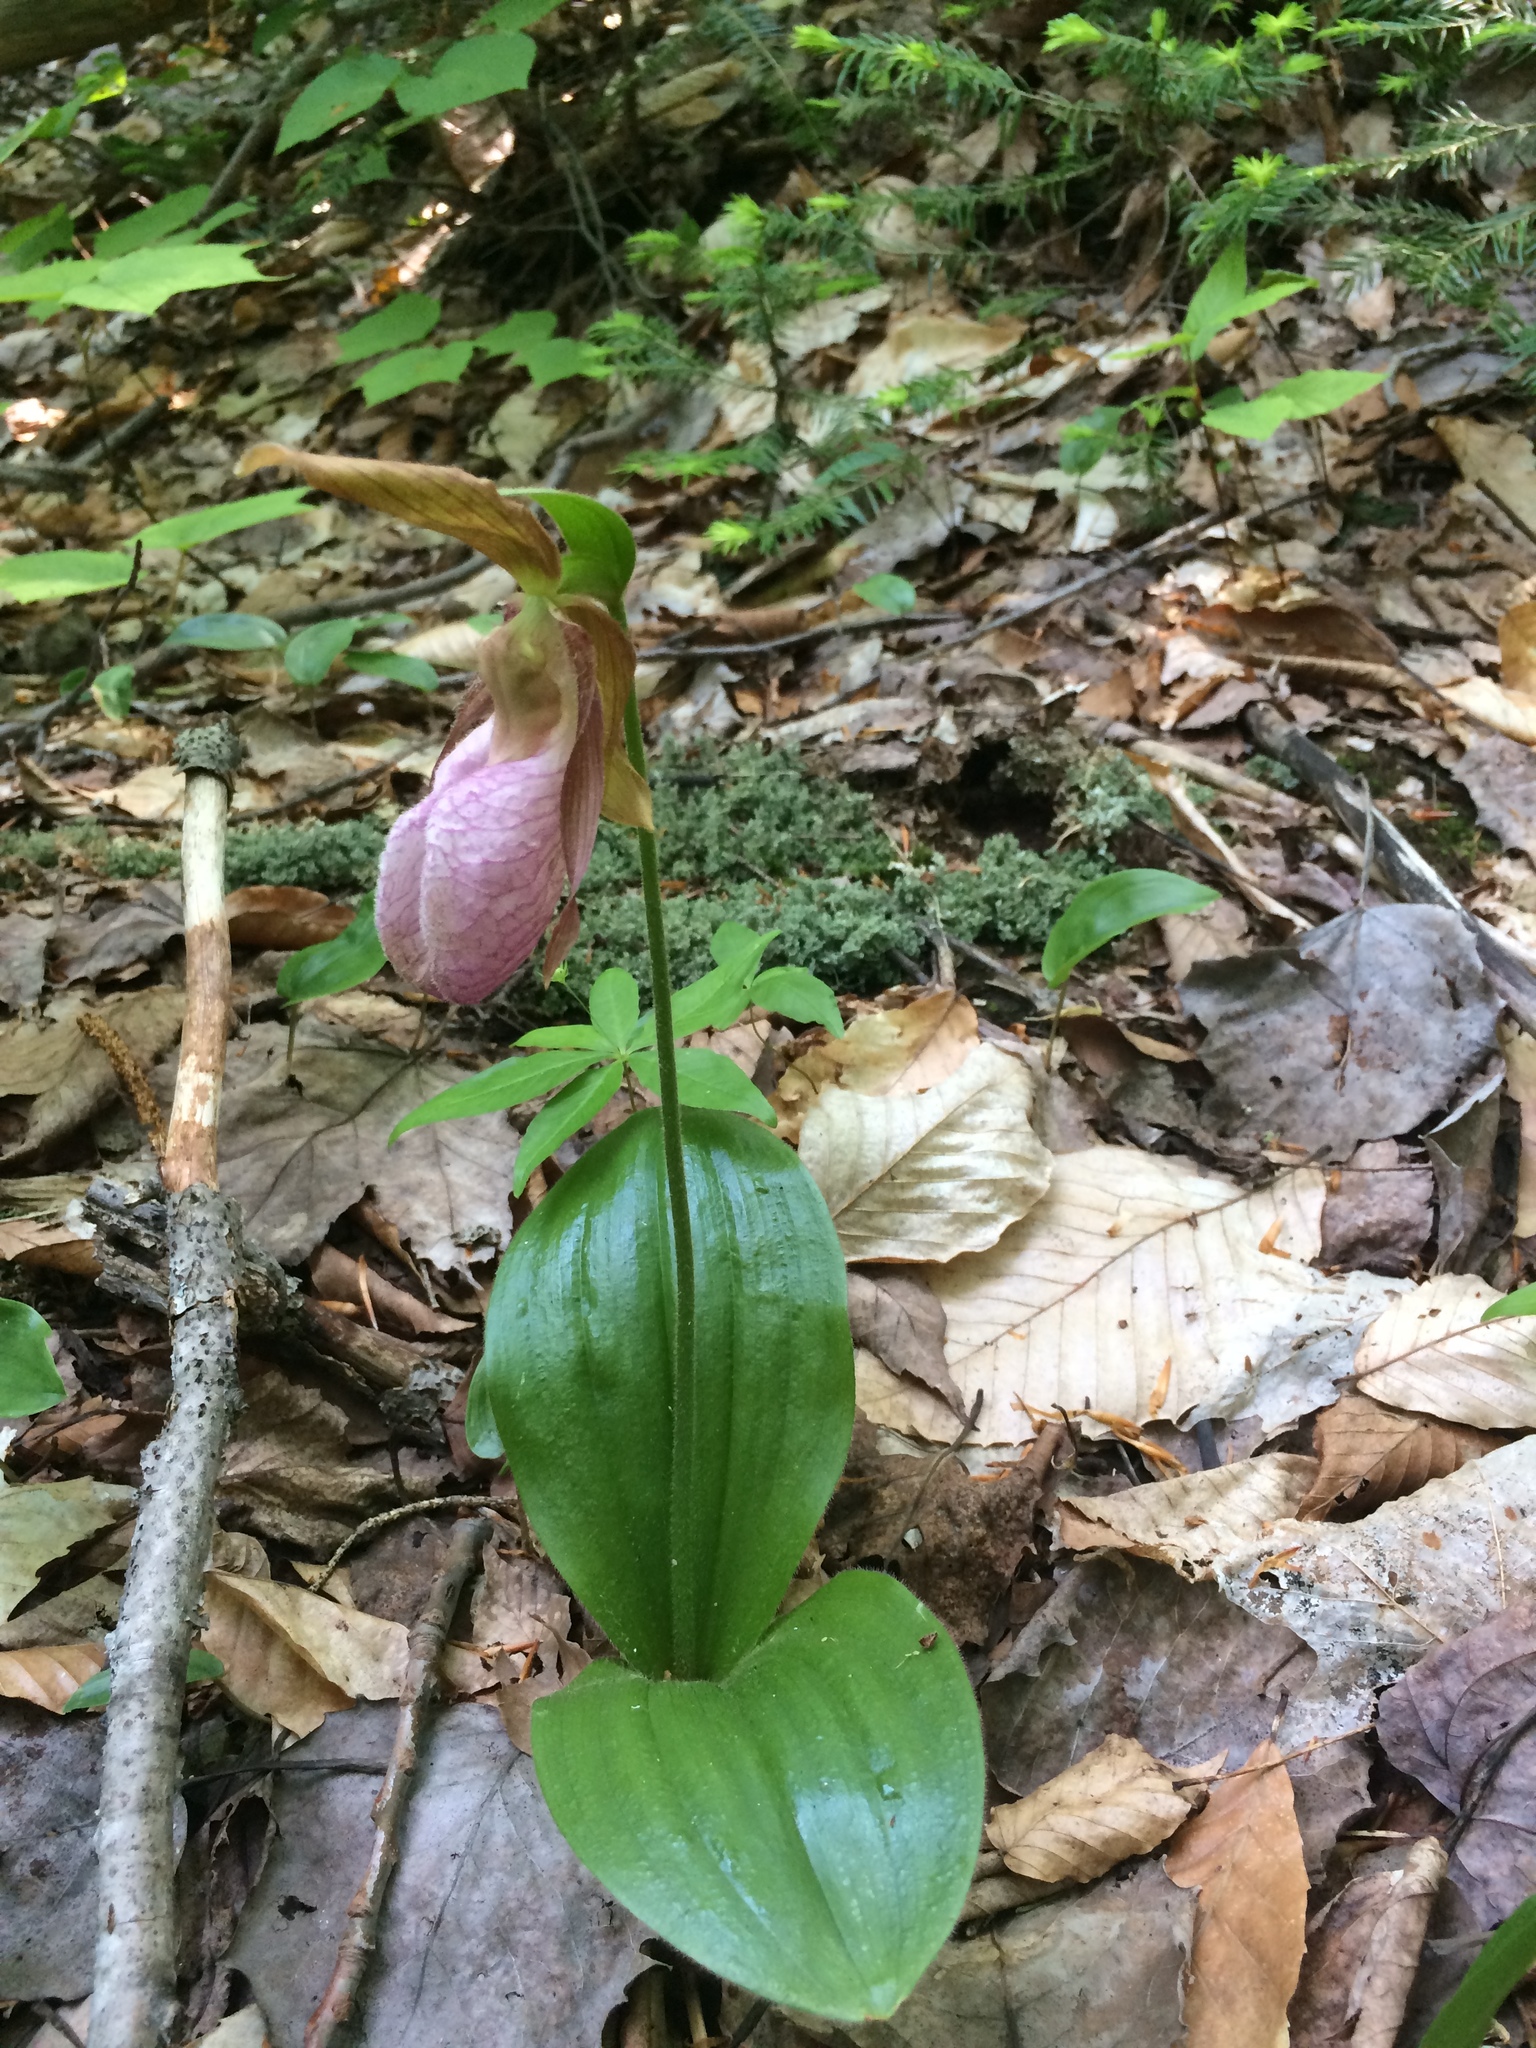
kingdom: Plantae
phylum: Tracheophyta
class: Liliopsida
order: Asparagales
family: Orchidaceae
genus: Cypripedium
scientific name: Cypripedium acaule
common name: Pink lady's-slipper
